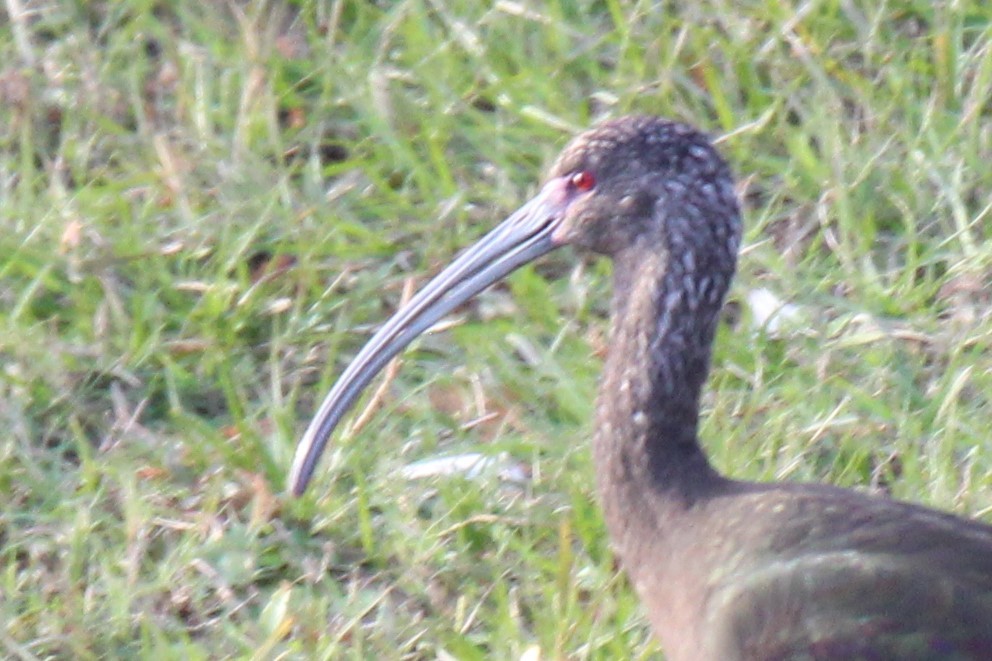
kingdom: Animalia
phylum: Chordata
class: Aves
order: Pelecaniformes
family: Threskiornithidae
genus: Plegadis
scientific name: Plegadis chihi
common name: White-faced ibis
